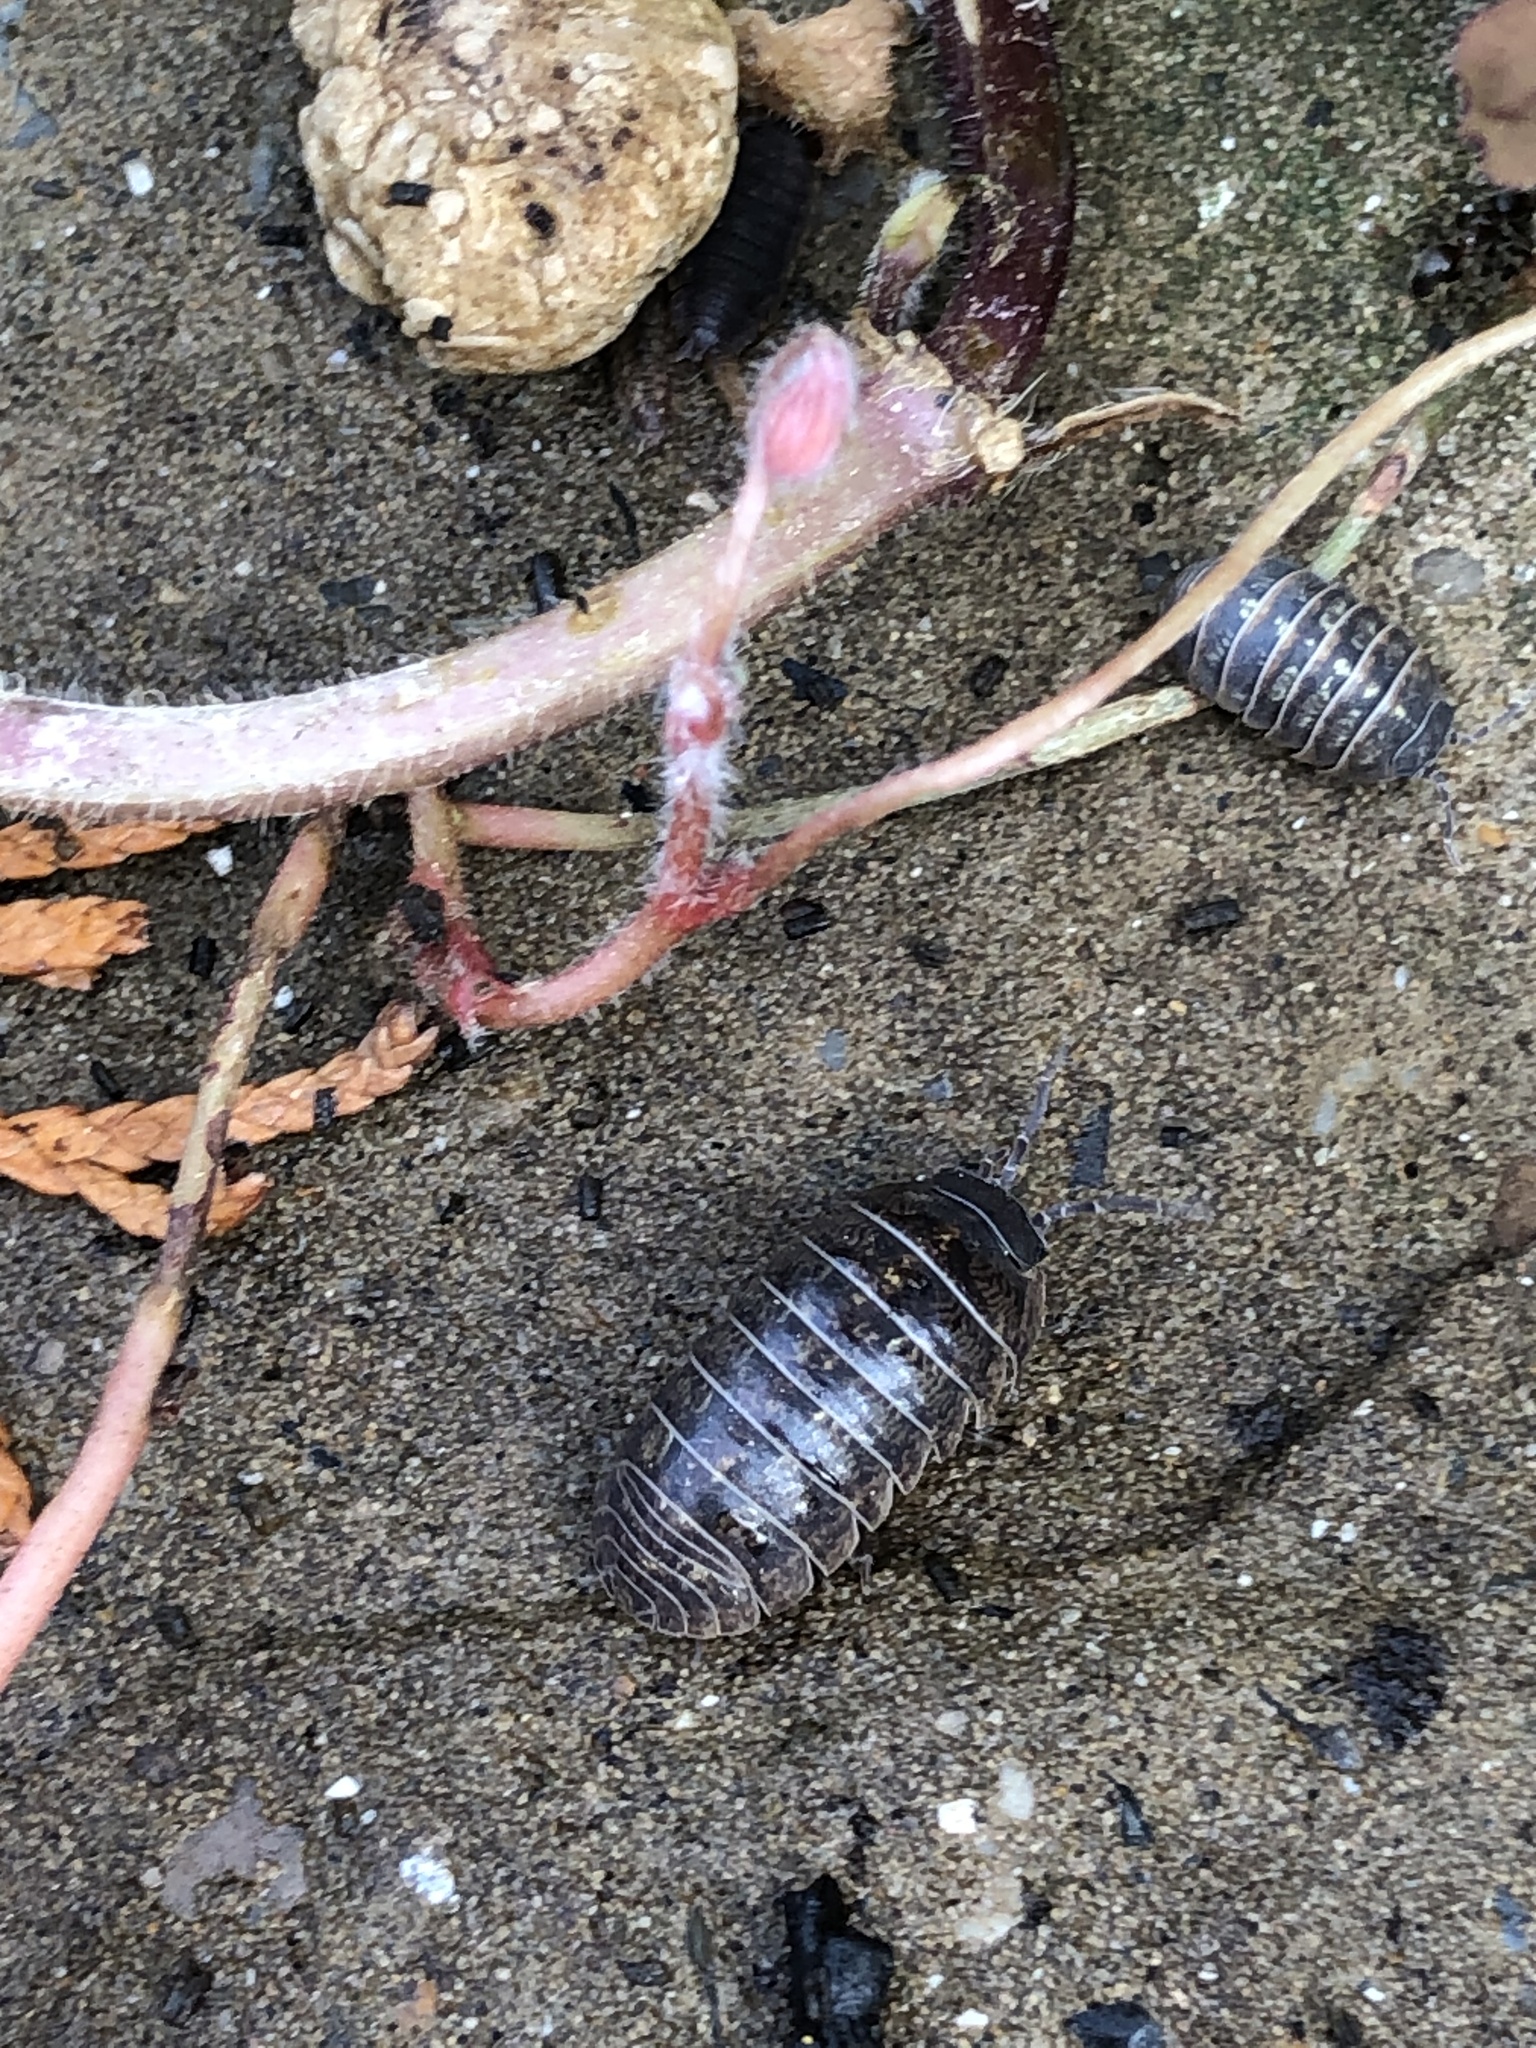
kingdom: Animalia
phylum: Arthropoda
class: Malacostraca
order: Isopoda
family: Armadillidiidae
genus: Armadillidium
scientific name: Armadillidium vulgare
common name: Common pill woodlouse
